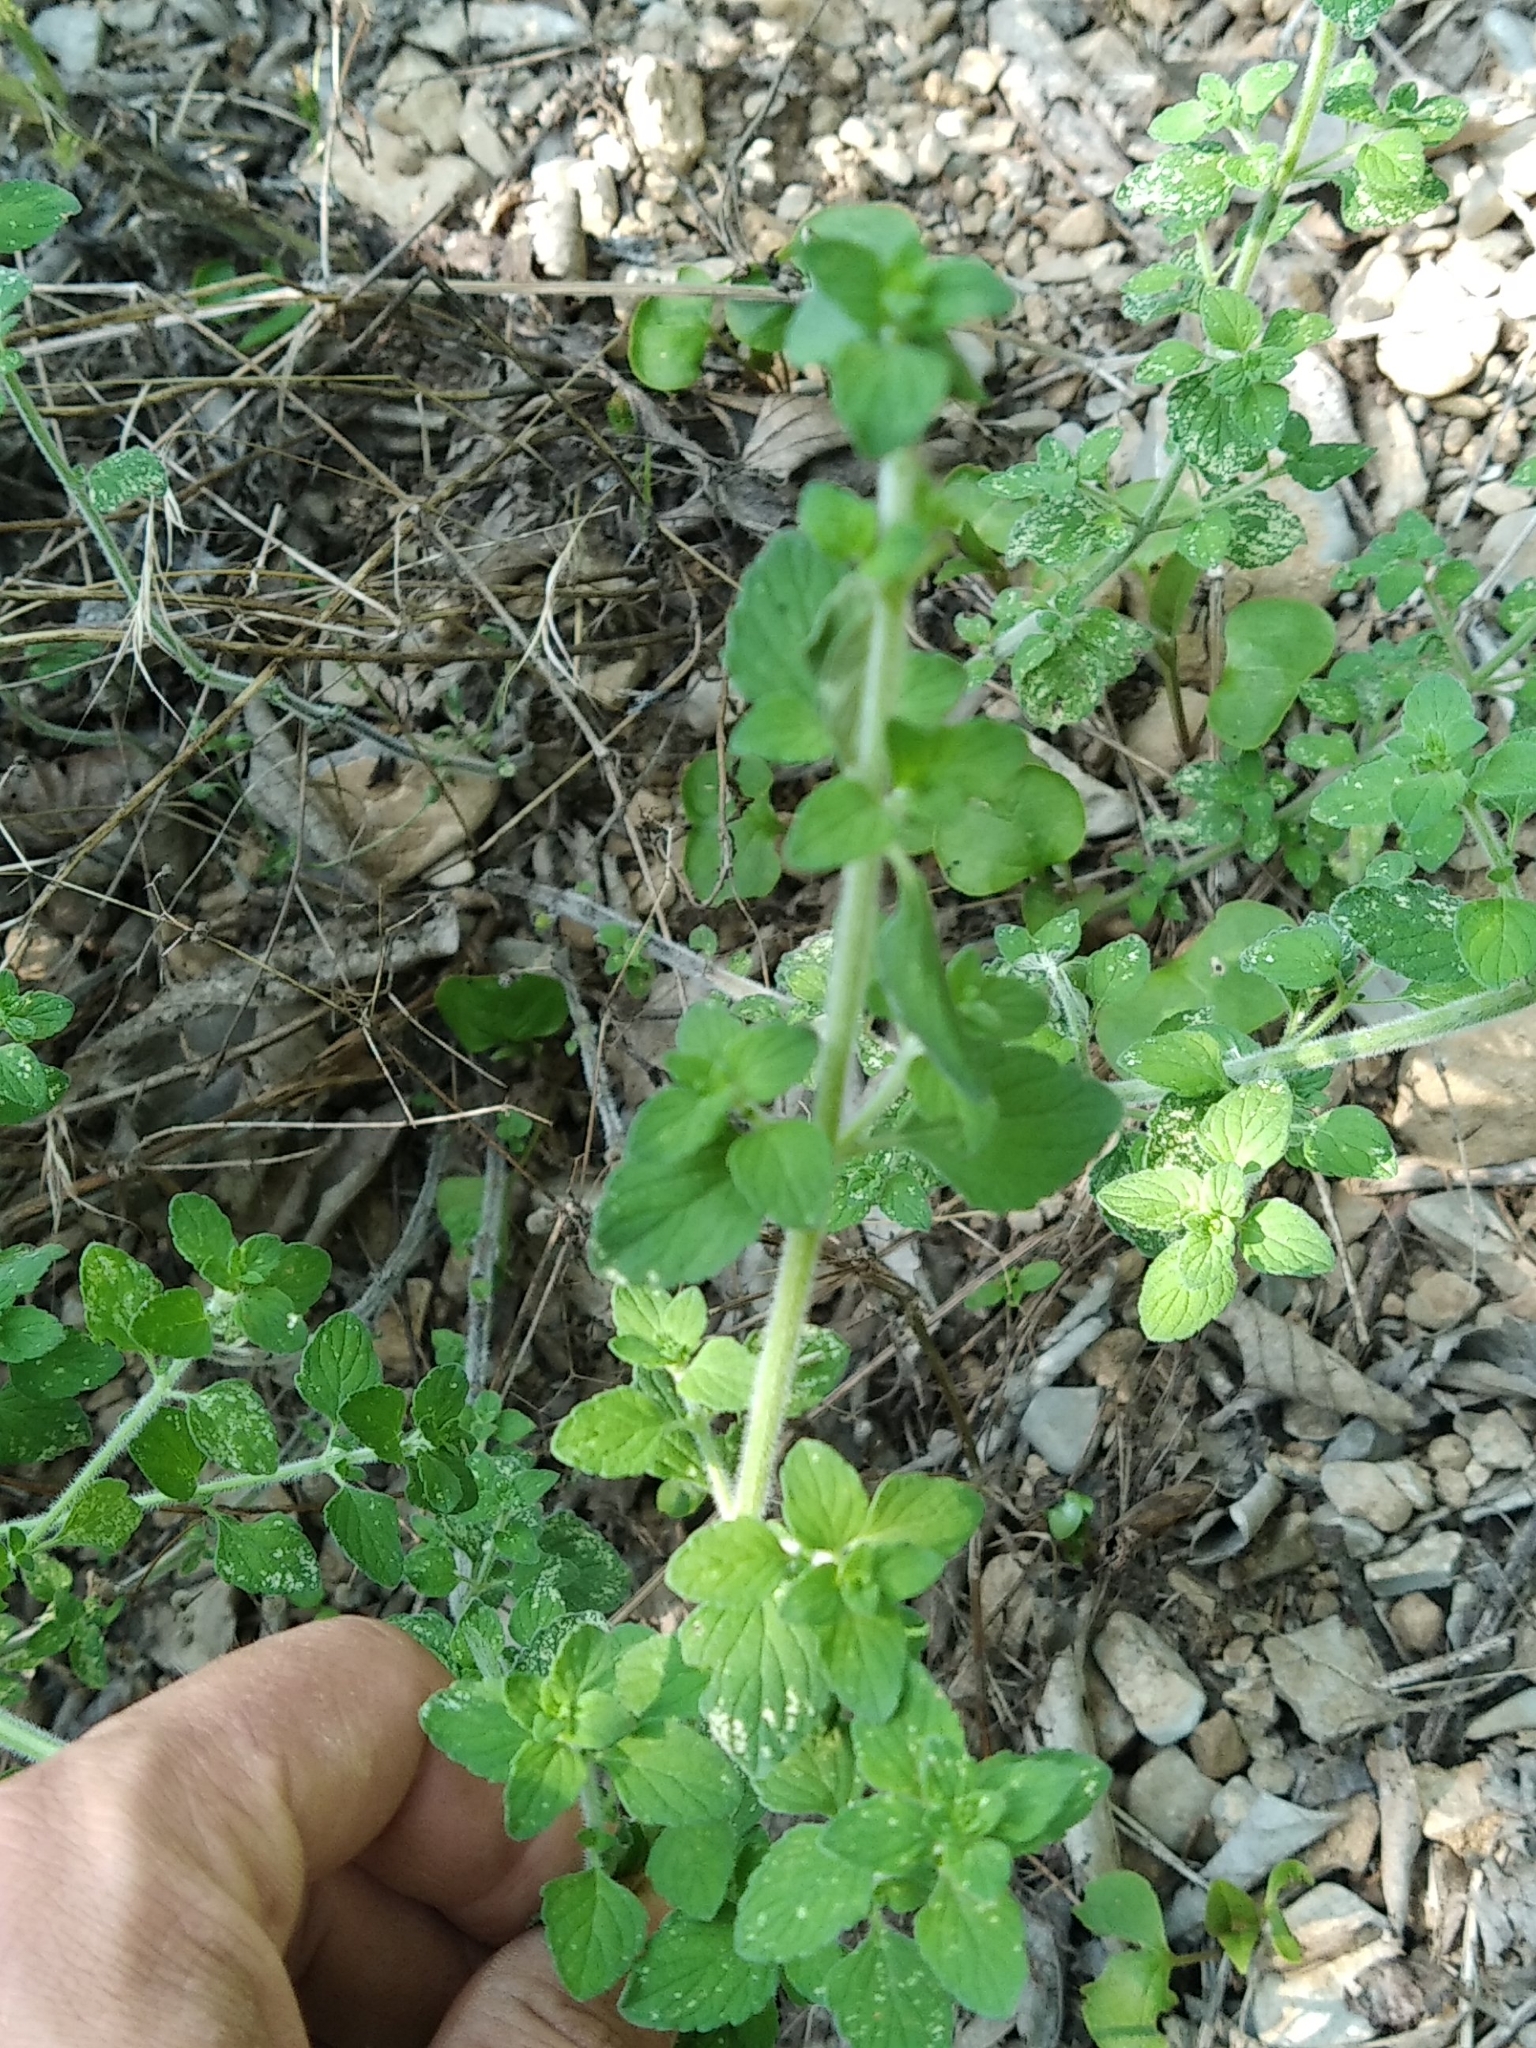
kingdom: Plantae
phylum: Tracheophyta
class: Magnoliopsida
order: Lamiales
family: Lamiaceae
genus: Clinopodium
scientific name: Clinopodium nepeta
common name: Lesser calamint
